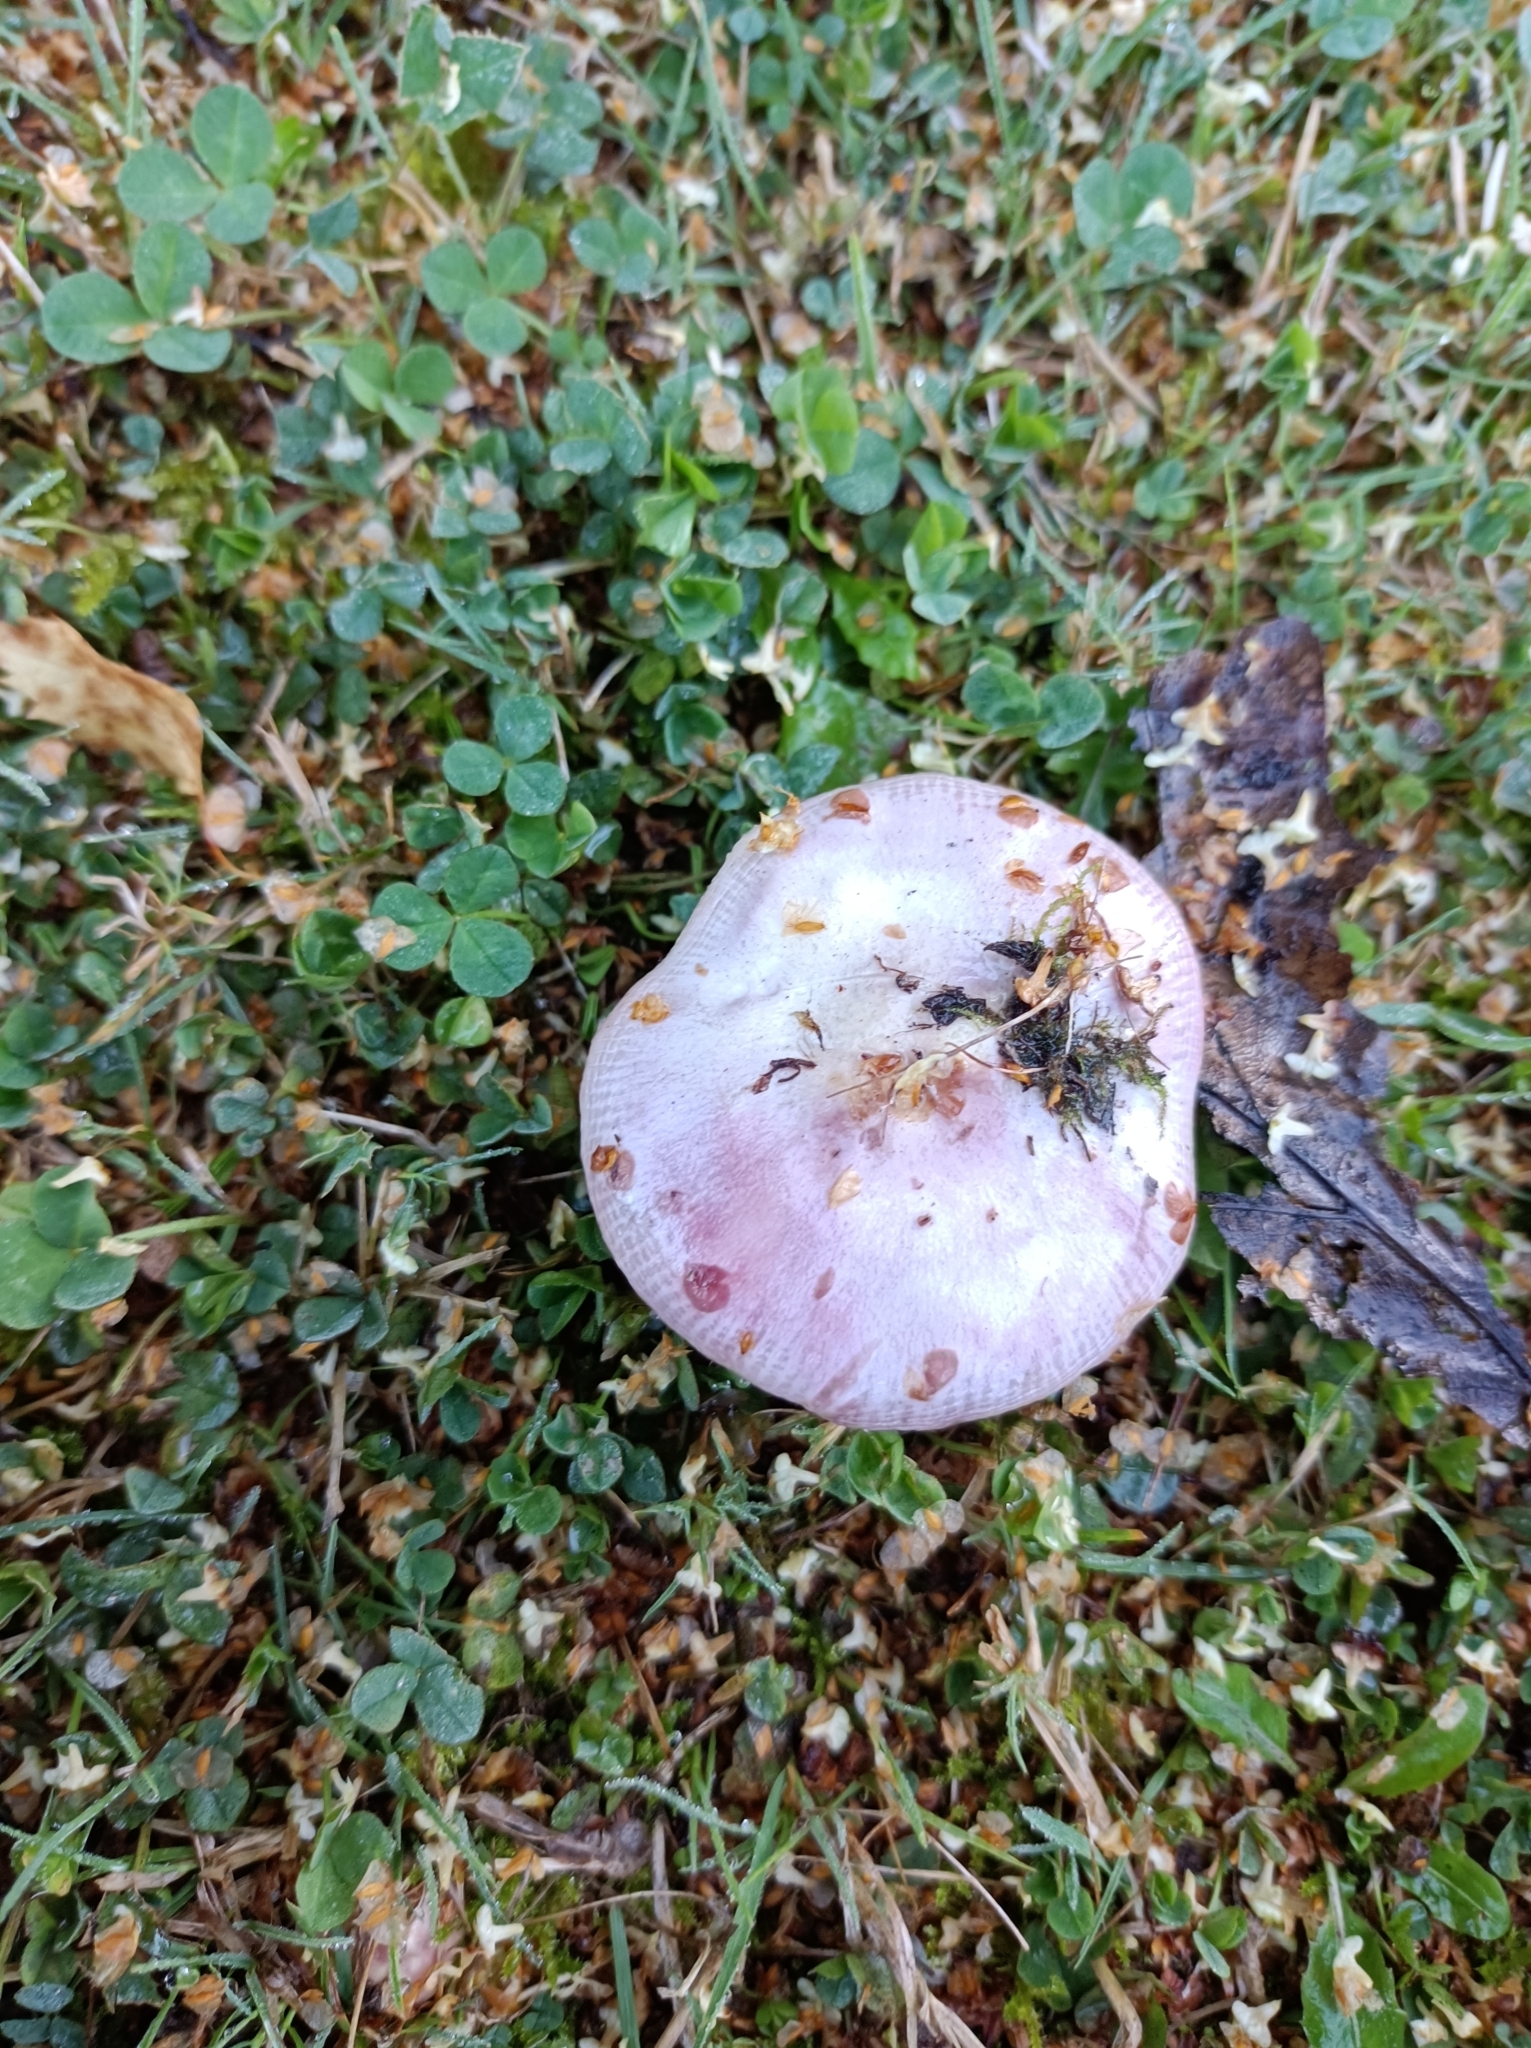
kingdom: Fungi
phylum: Basidiomycota
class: Agaricomycetes
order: Russulales
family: Russulaceae
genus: Russula
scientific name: Russula nitida
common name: Purple swamp brittlegill
